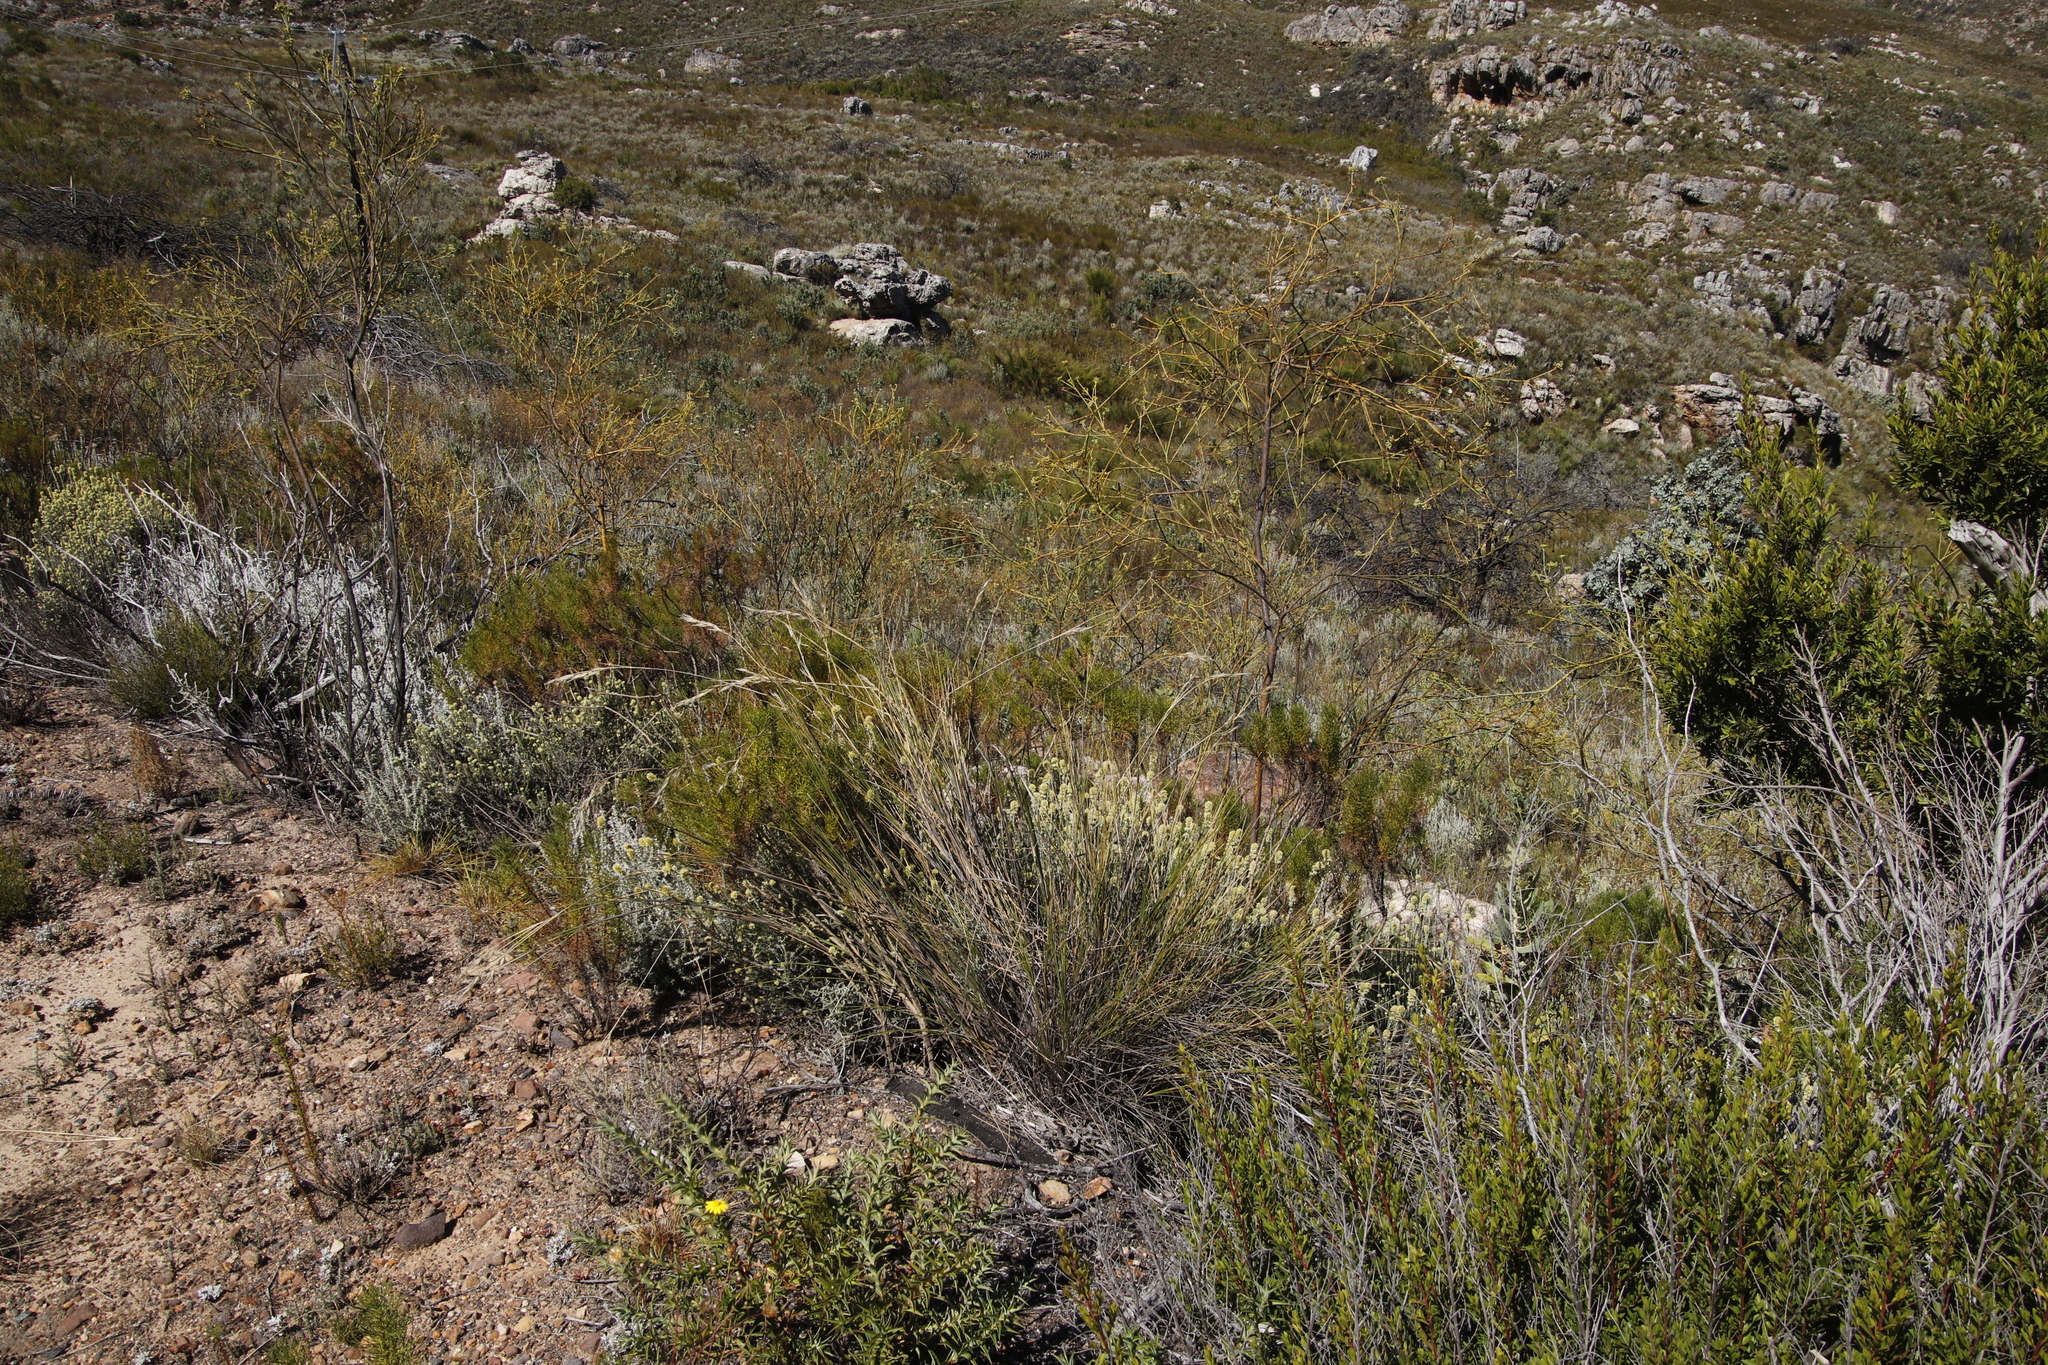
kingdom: Plantae
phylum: Tracheophyta
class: Magnoliopsida
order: Santalales
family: Thesiaceae
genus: Thesium
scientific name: Thesium strictum
